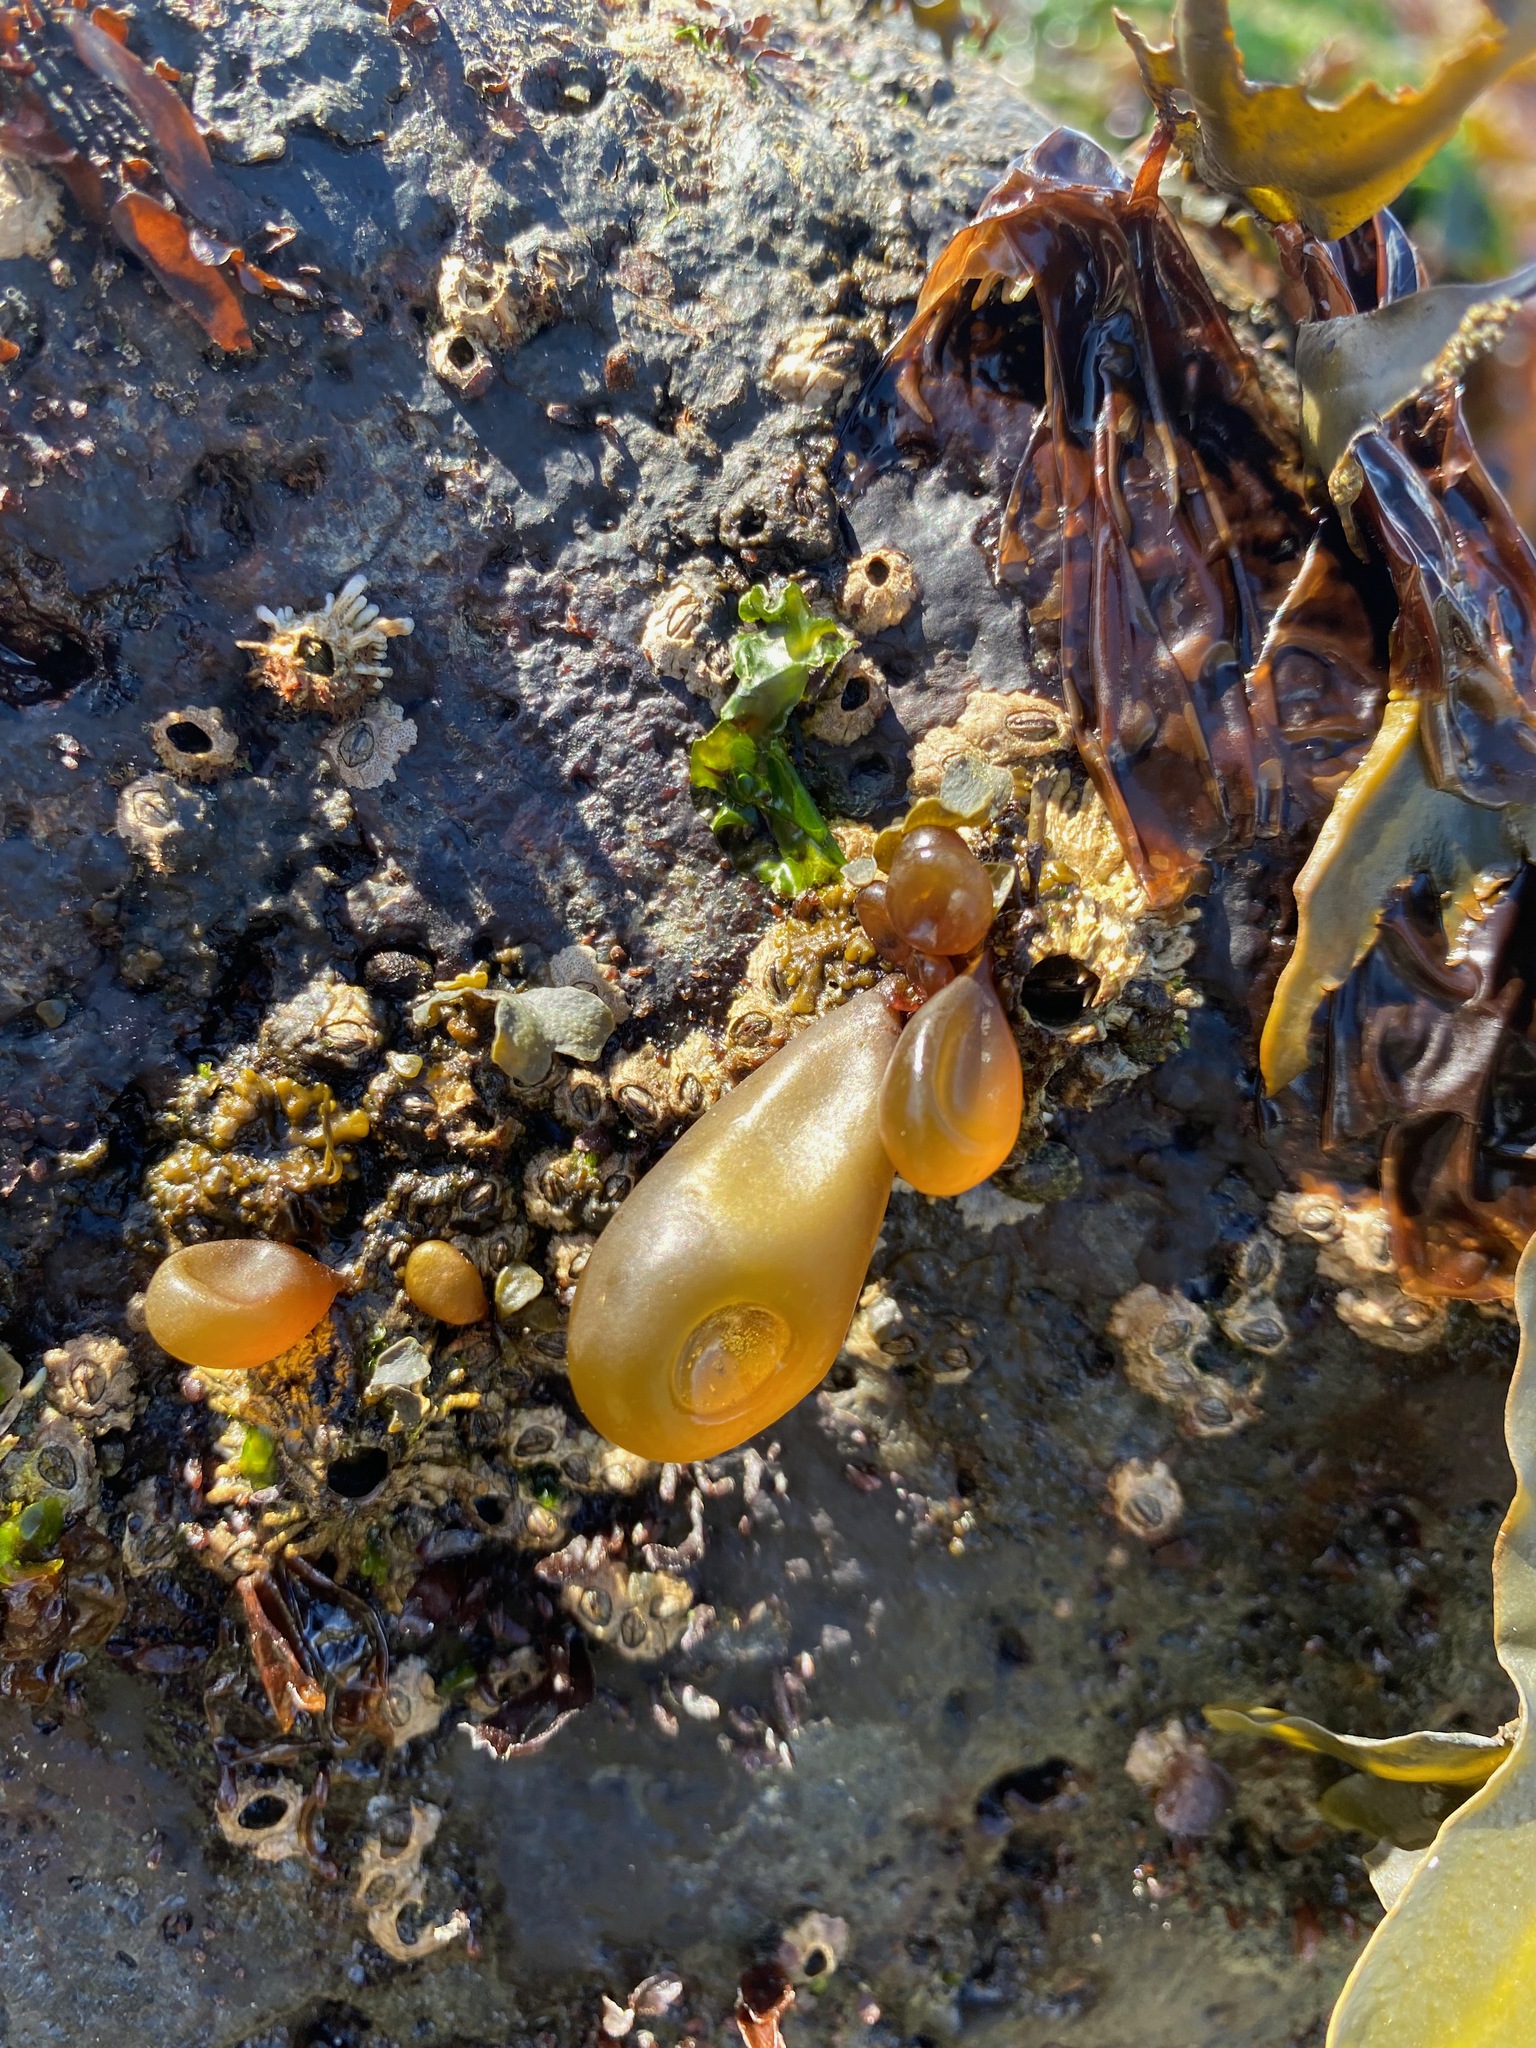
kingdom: Plantae
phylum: Rhodophyta
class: Florideophyceae
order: Palmariales
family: Palmariaceae
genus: Halosaccion
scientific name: Halosaccion glandiforme
